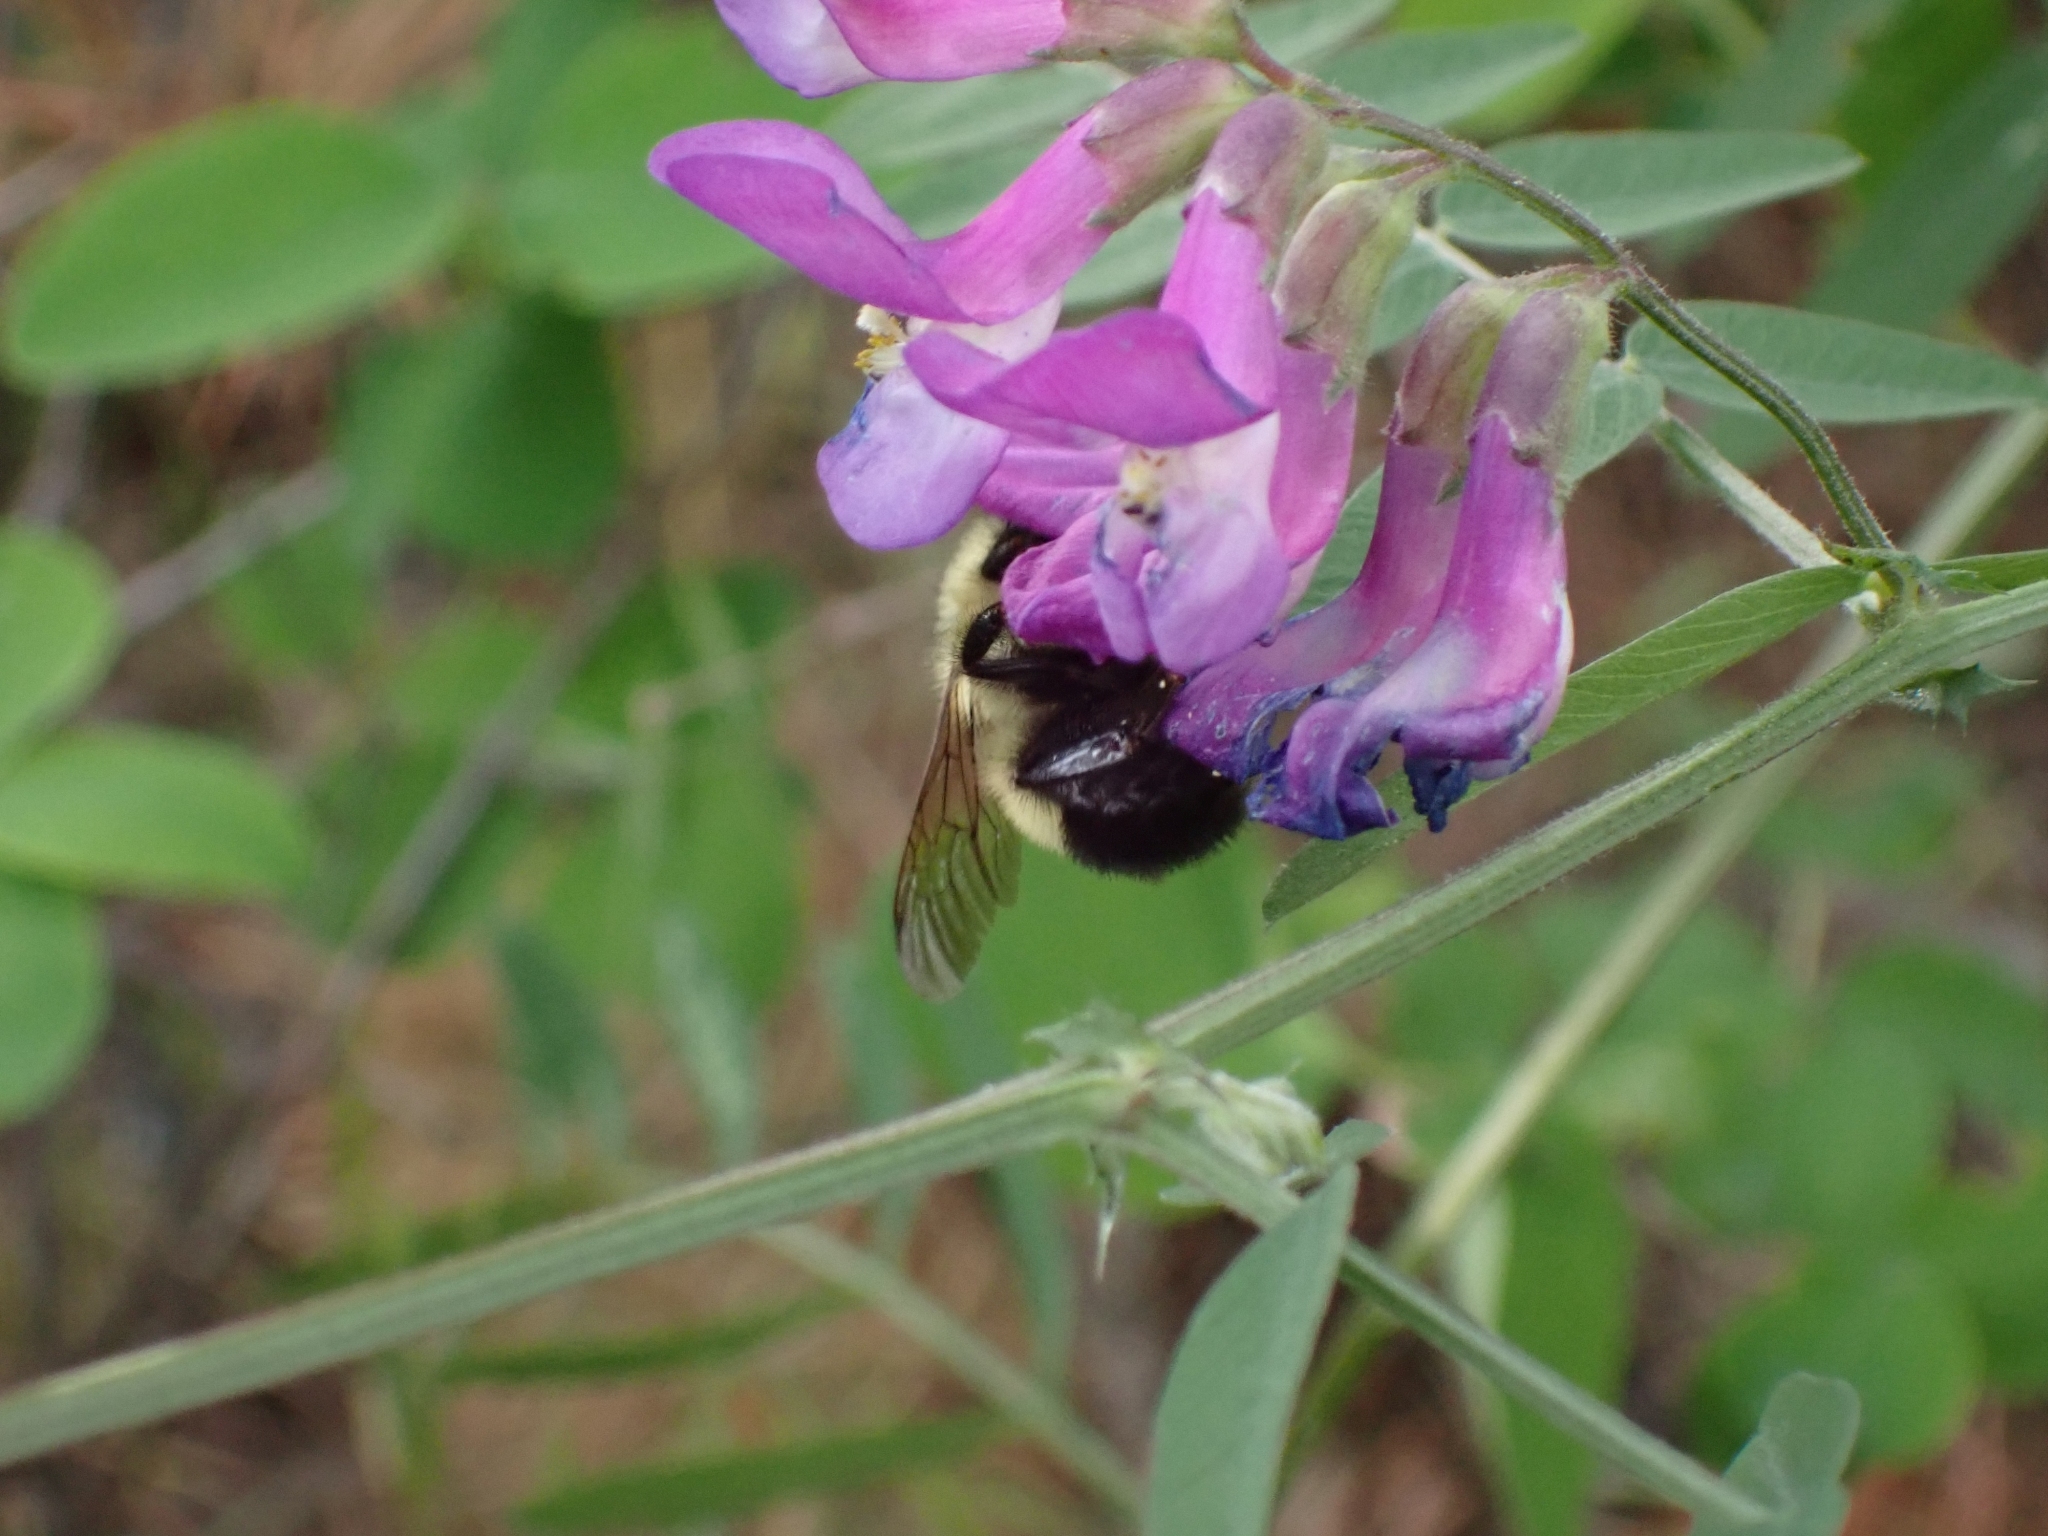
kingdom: Animalia
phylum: Arthropoda
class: Insecta
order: Hymenoptera
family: Apidae
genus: Bombus
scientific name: Bombus vagans
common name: Half-black bumble bee
